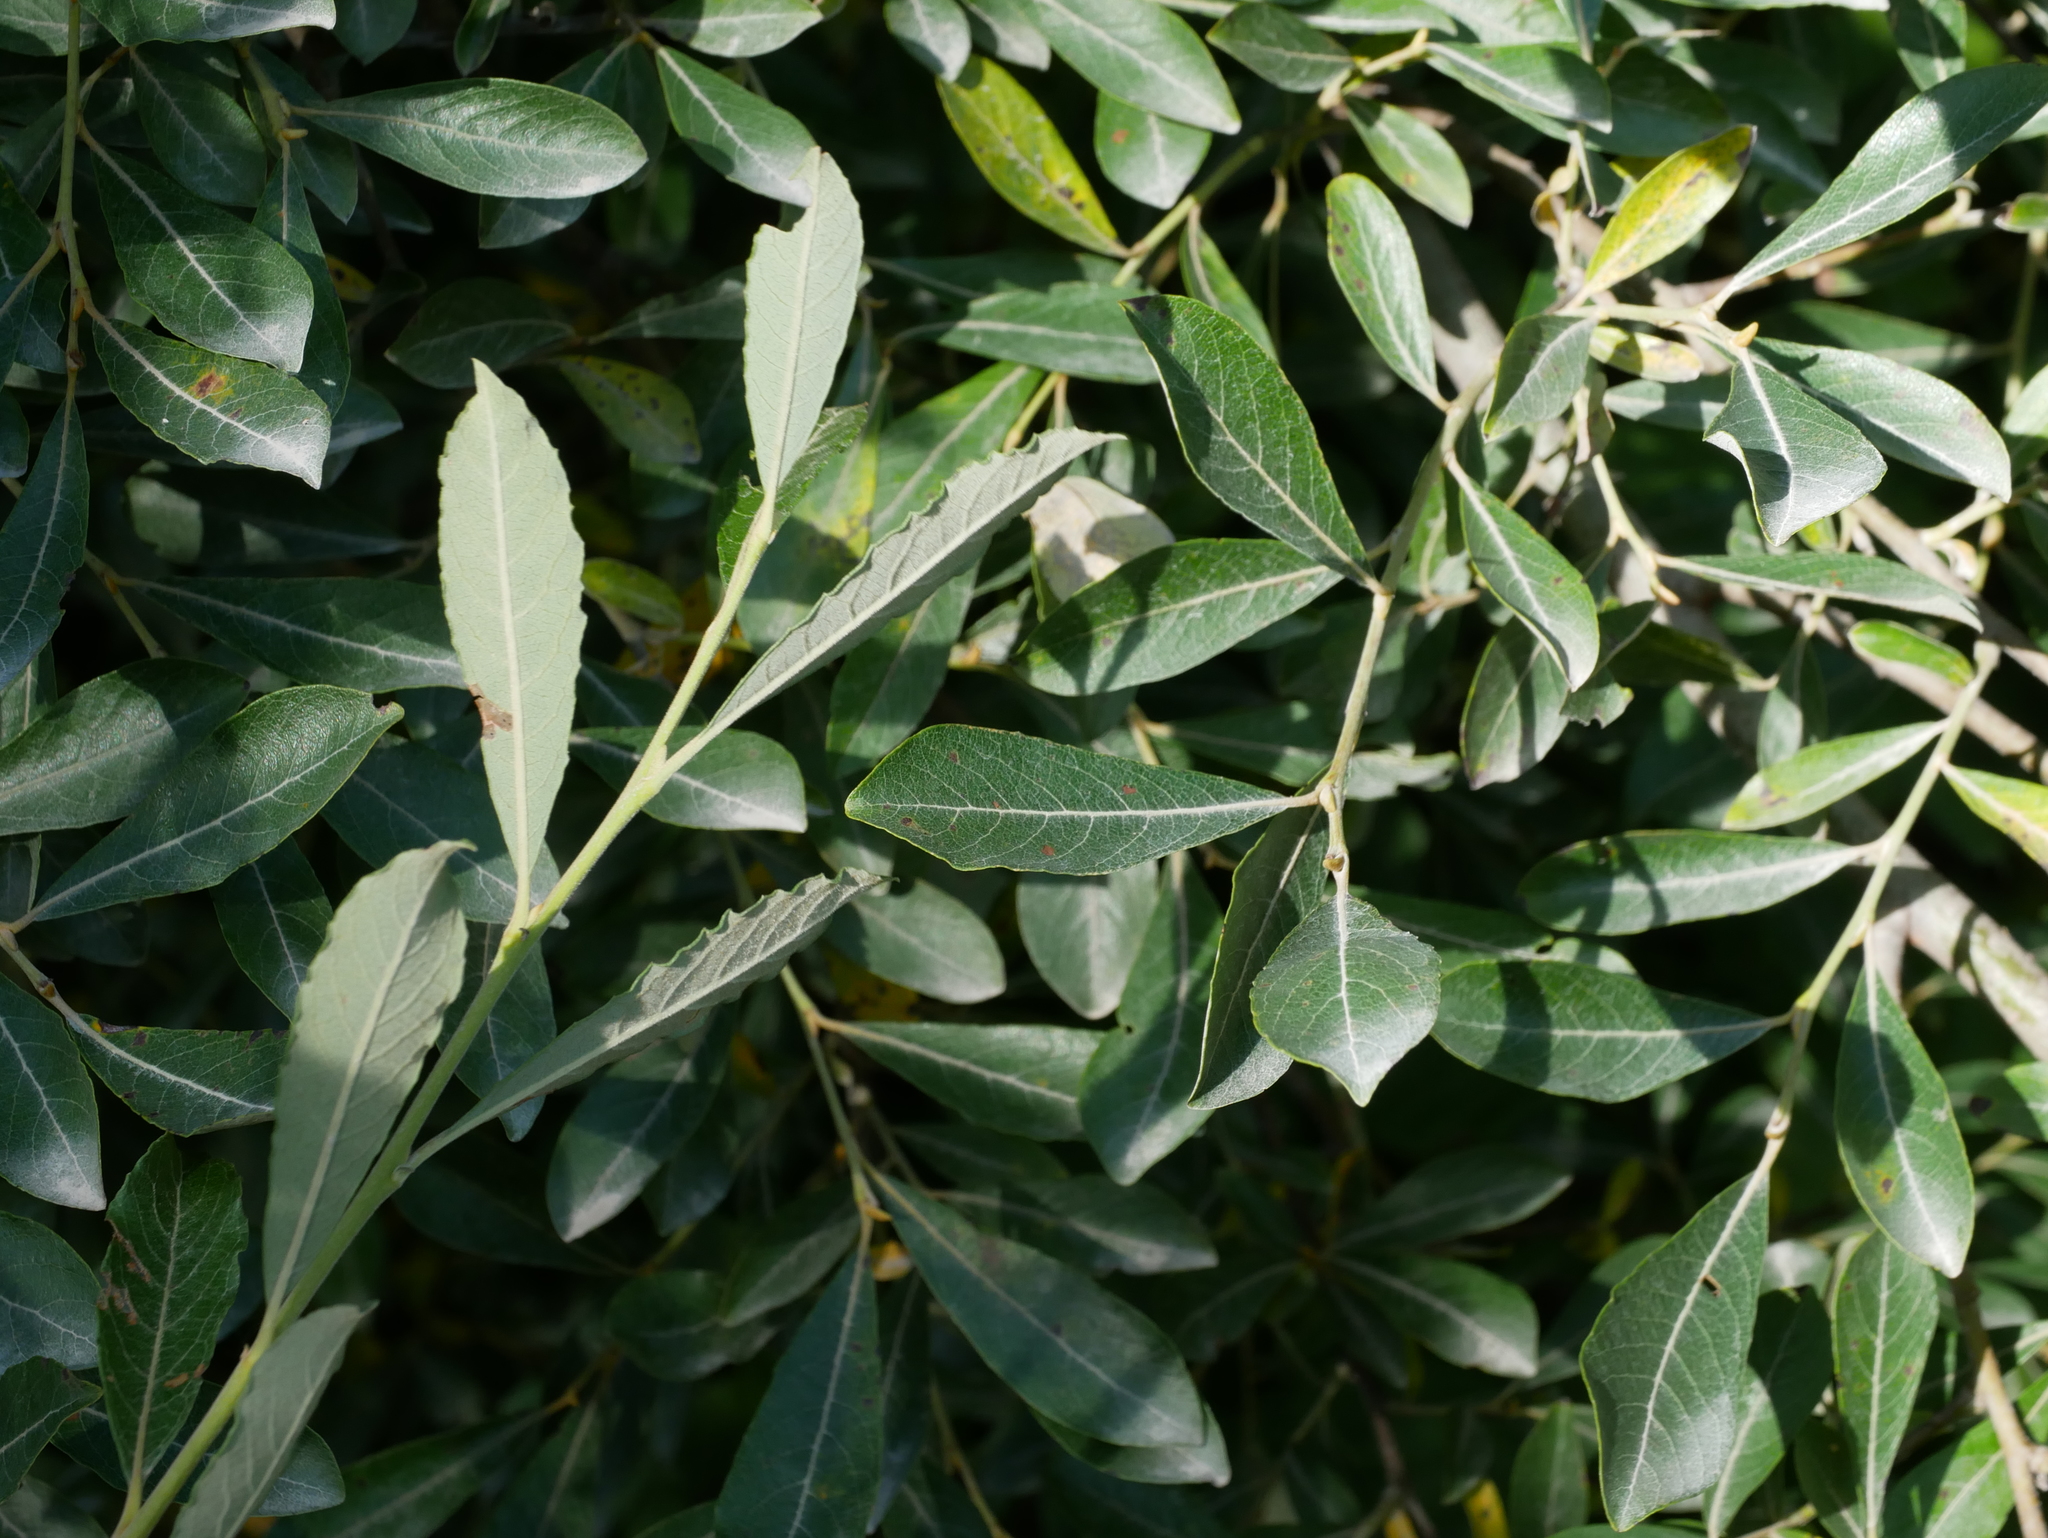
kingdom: Plantae
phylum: Tracheophyta
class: Magnoliopsida
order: Malpighiales
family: Salicaceae
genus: Salix
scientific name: Salix sitchensis
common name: Sitka willow
